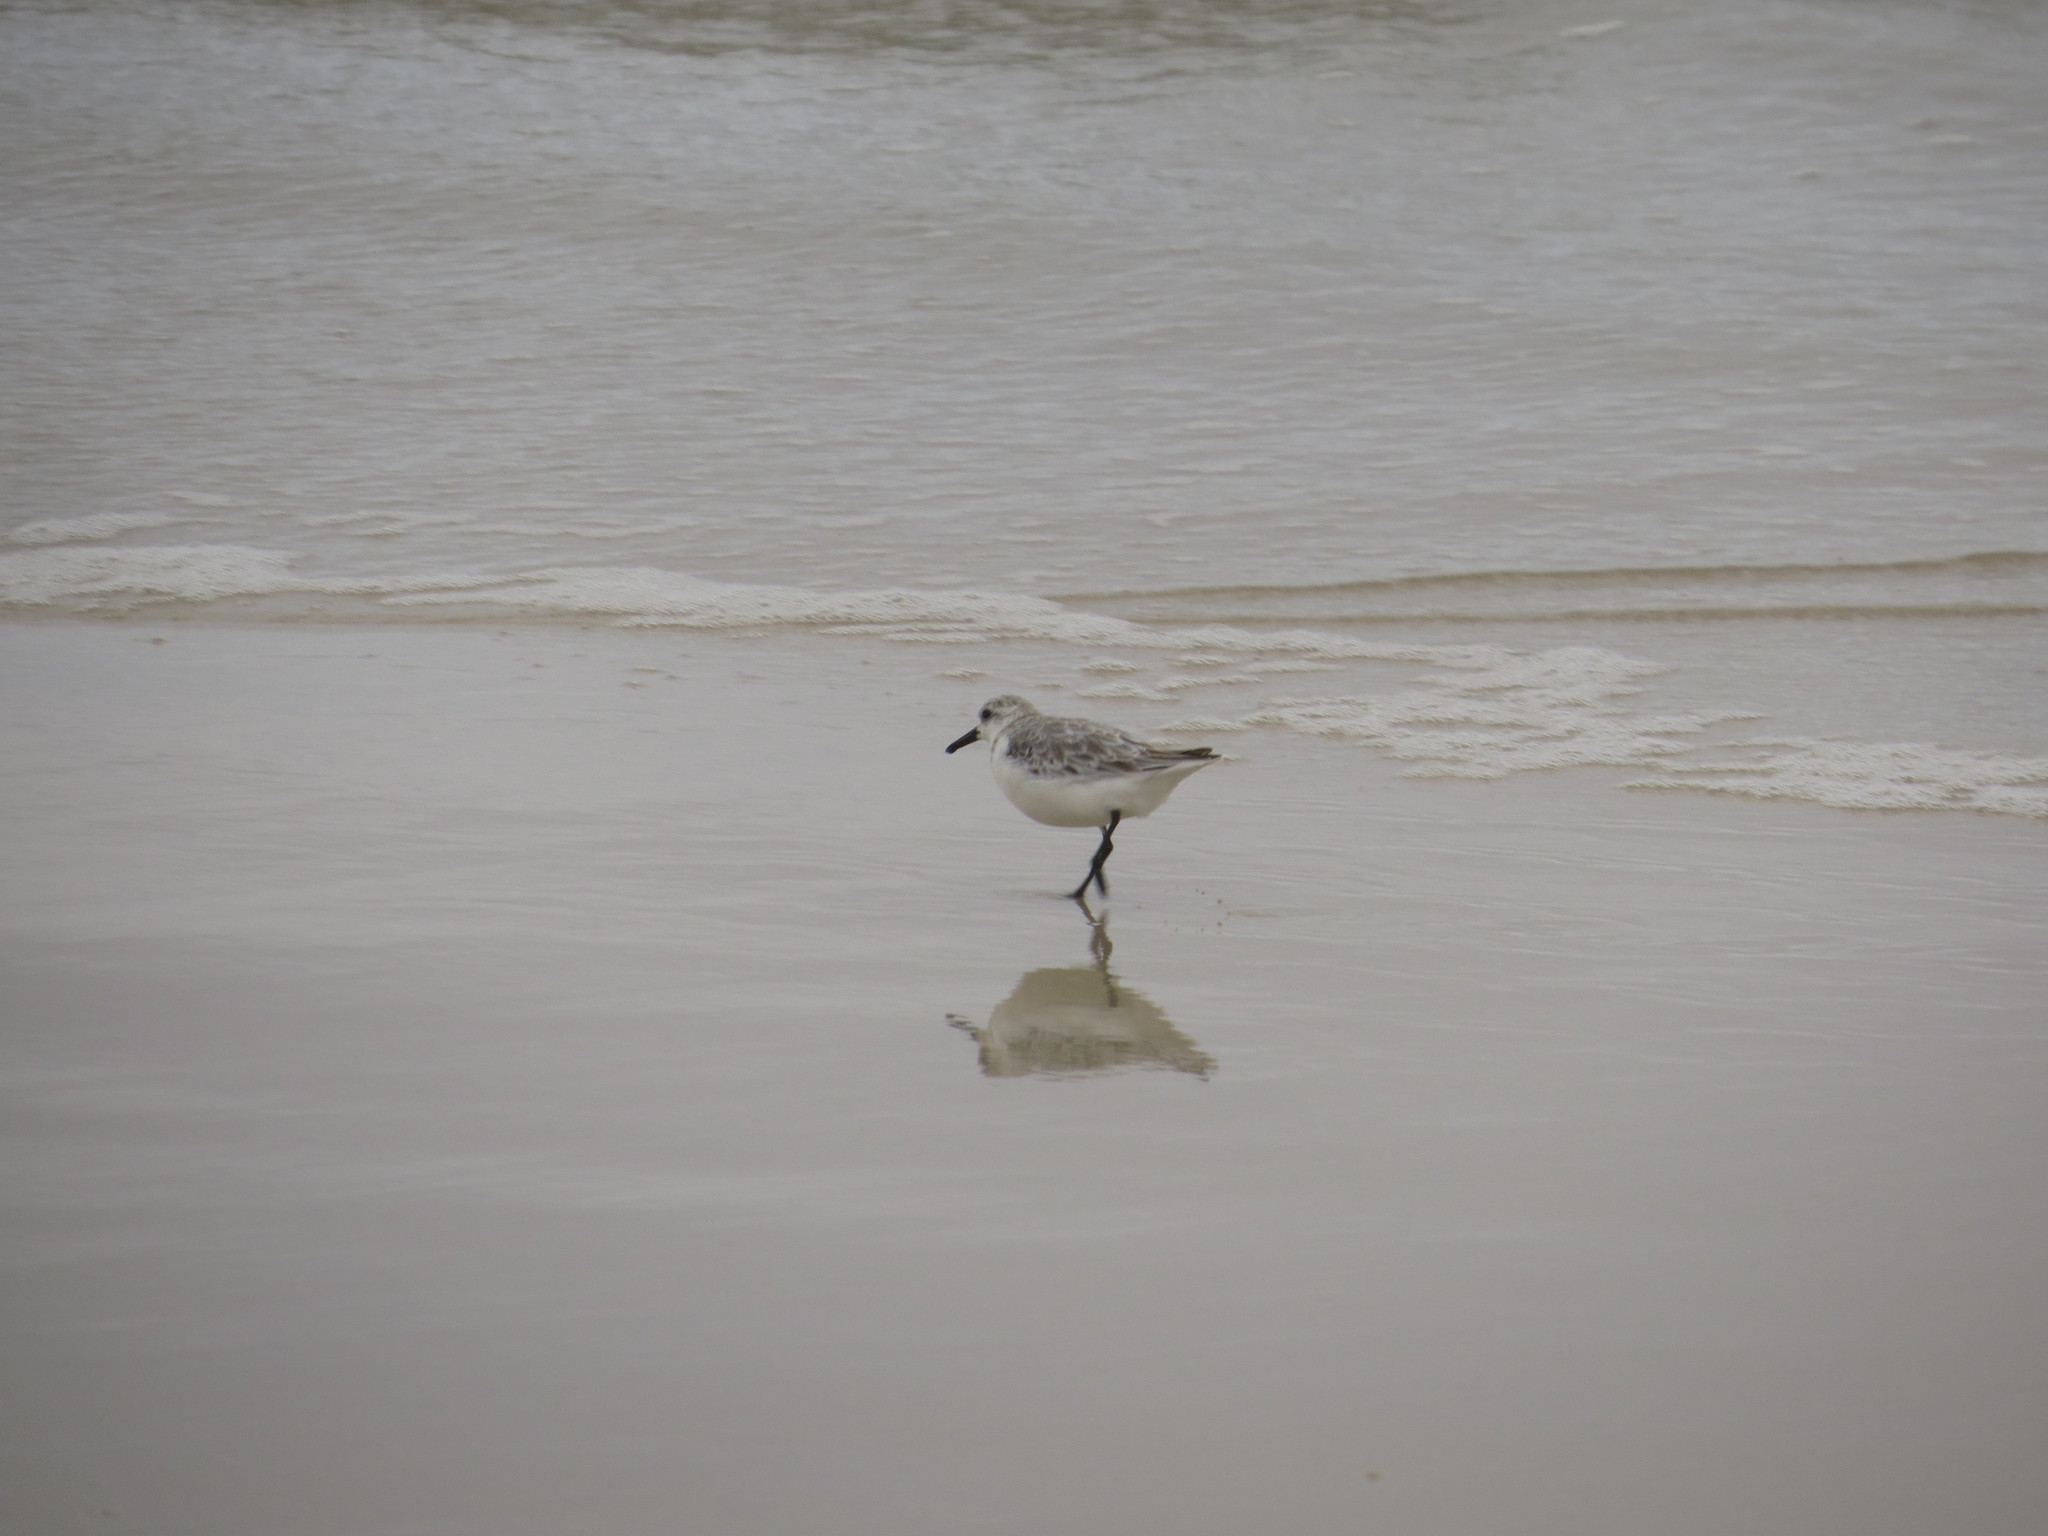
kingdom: Animalia
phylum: Chordata
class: Aves
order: Charadriiformes
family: Scolopacidae
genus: Calidris
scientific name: Calidris alba
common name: Sanderling
